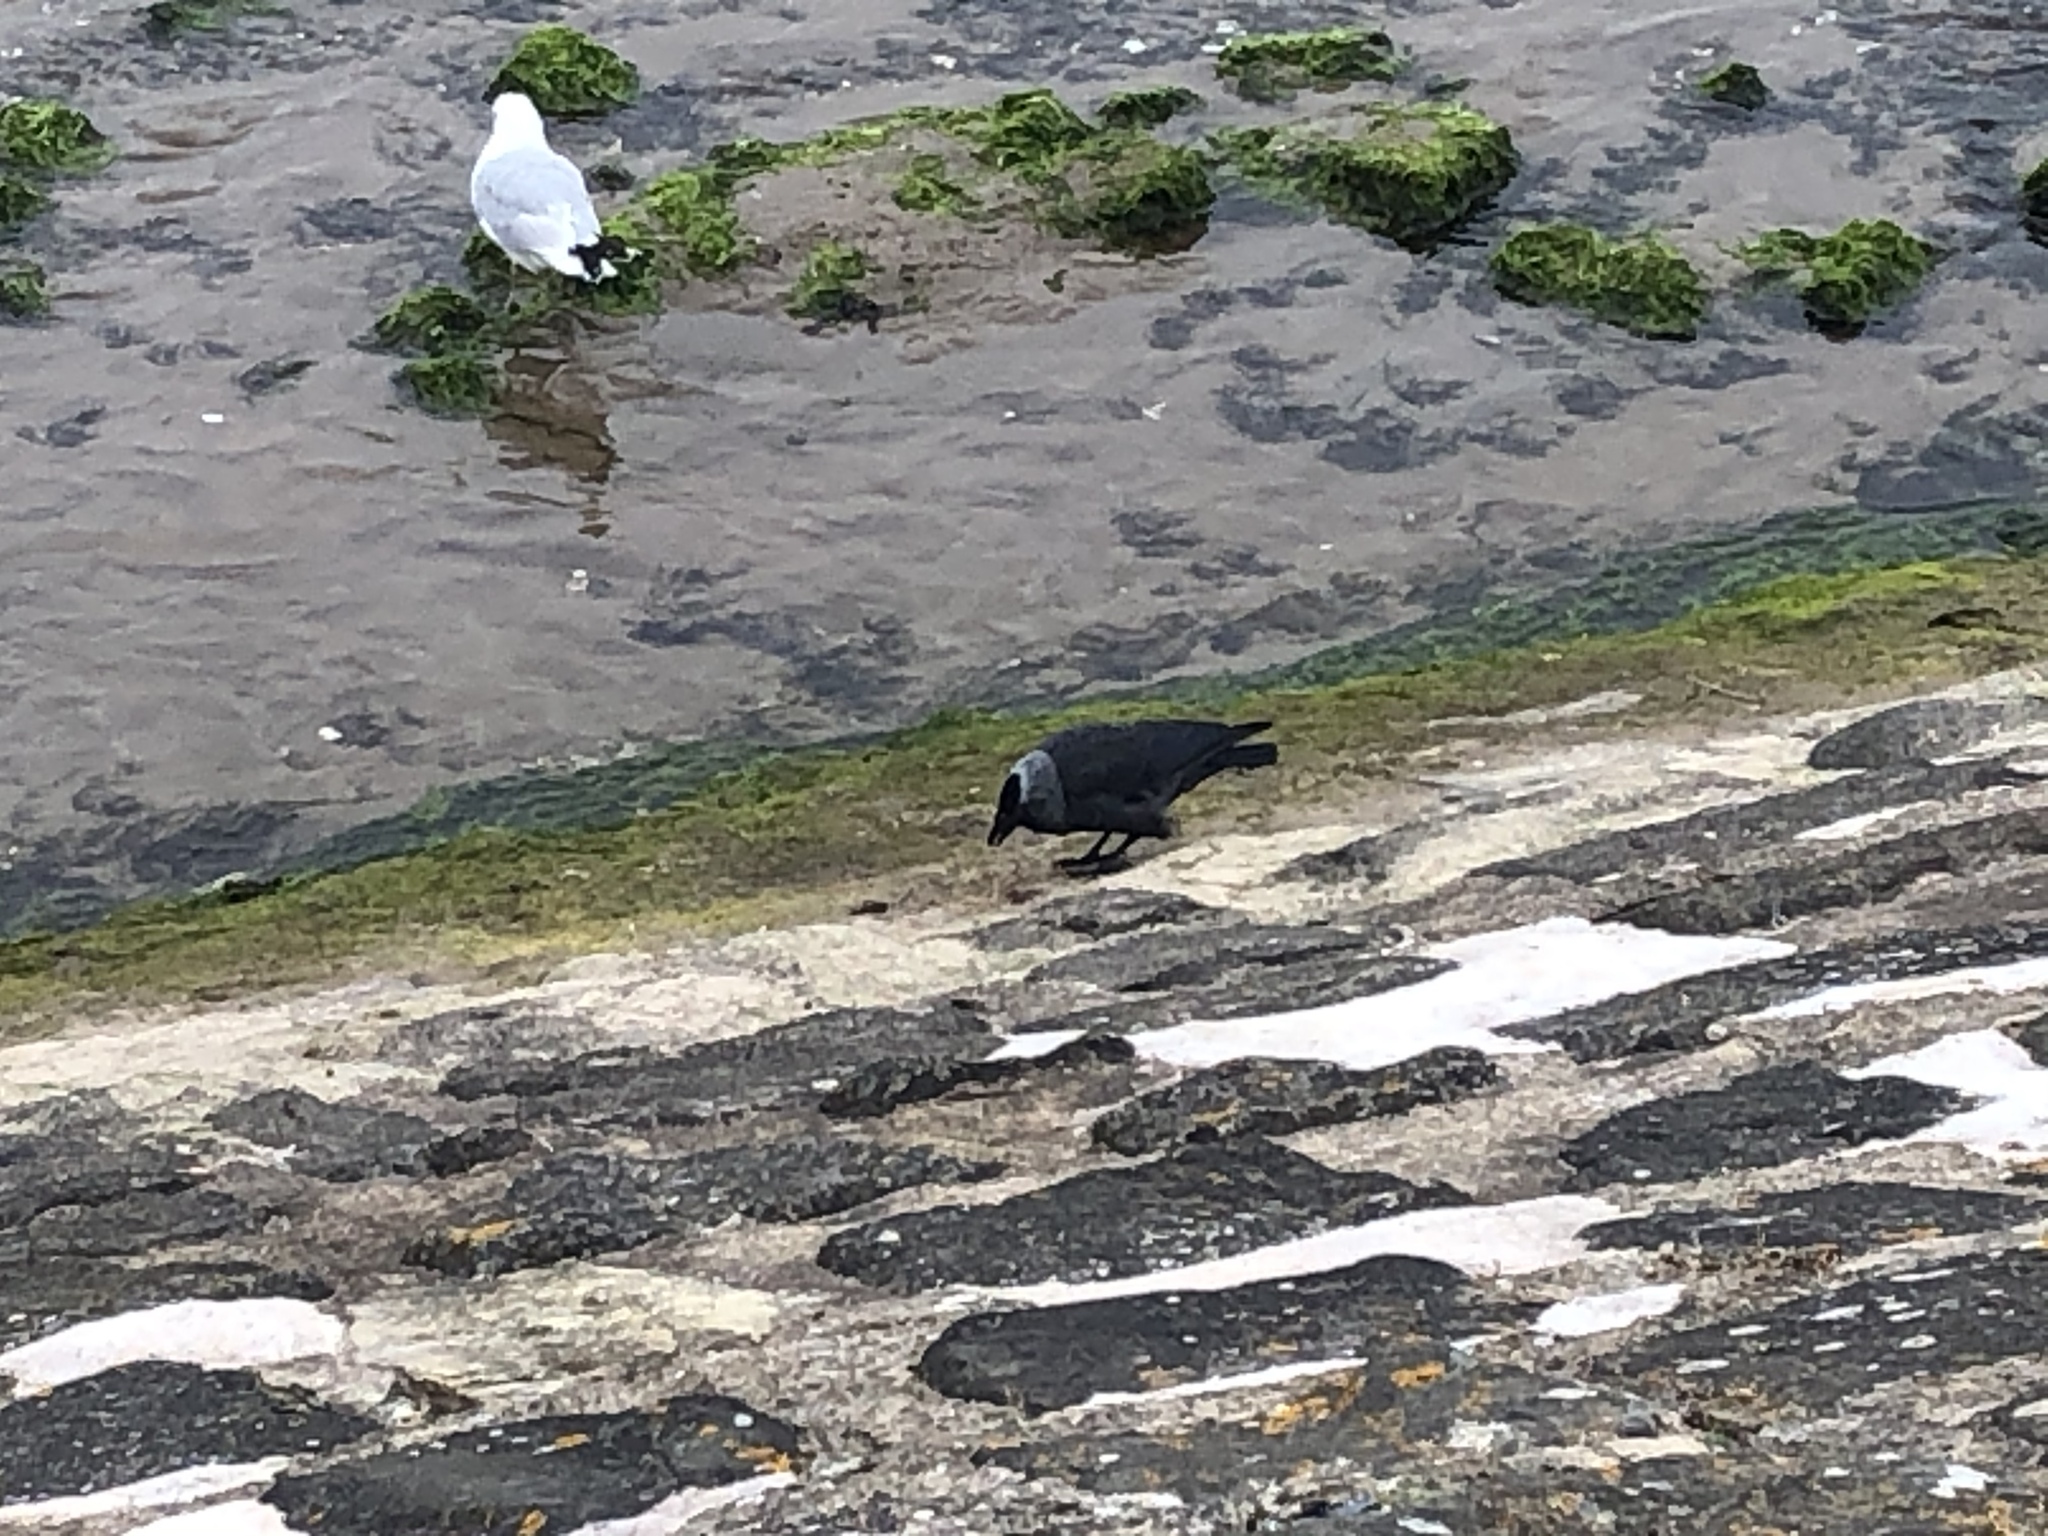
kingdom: Animalia
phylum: Chordata
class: Aves
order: Passeriformes
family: Corvidae
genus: Coloeus
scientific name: Coloeus monedula
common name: Western jackdaw
